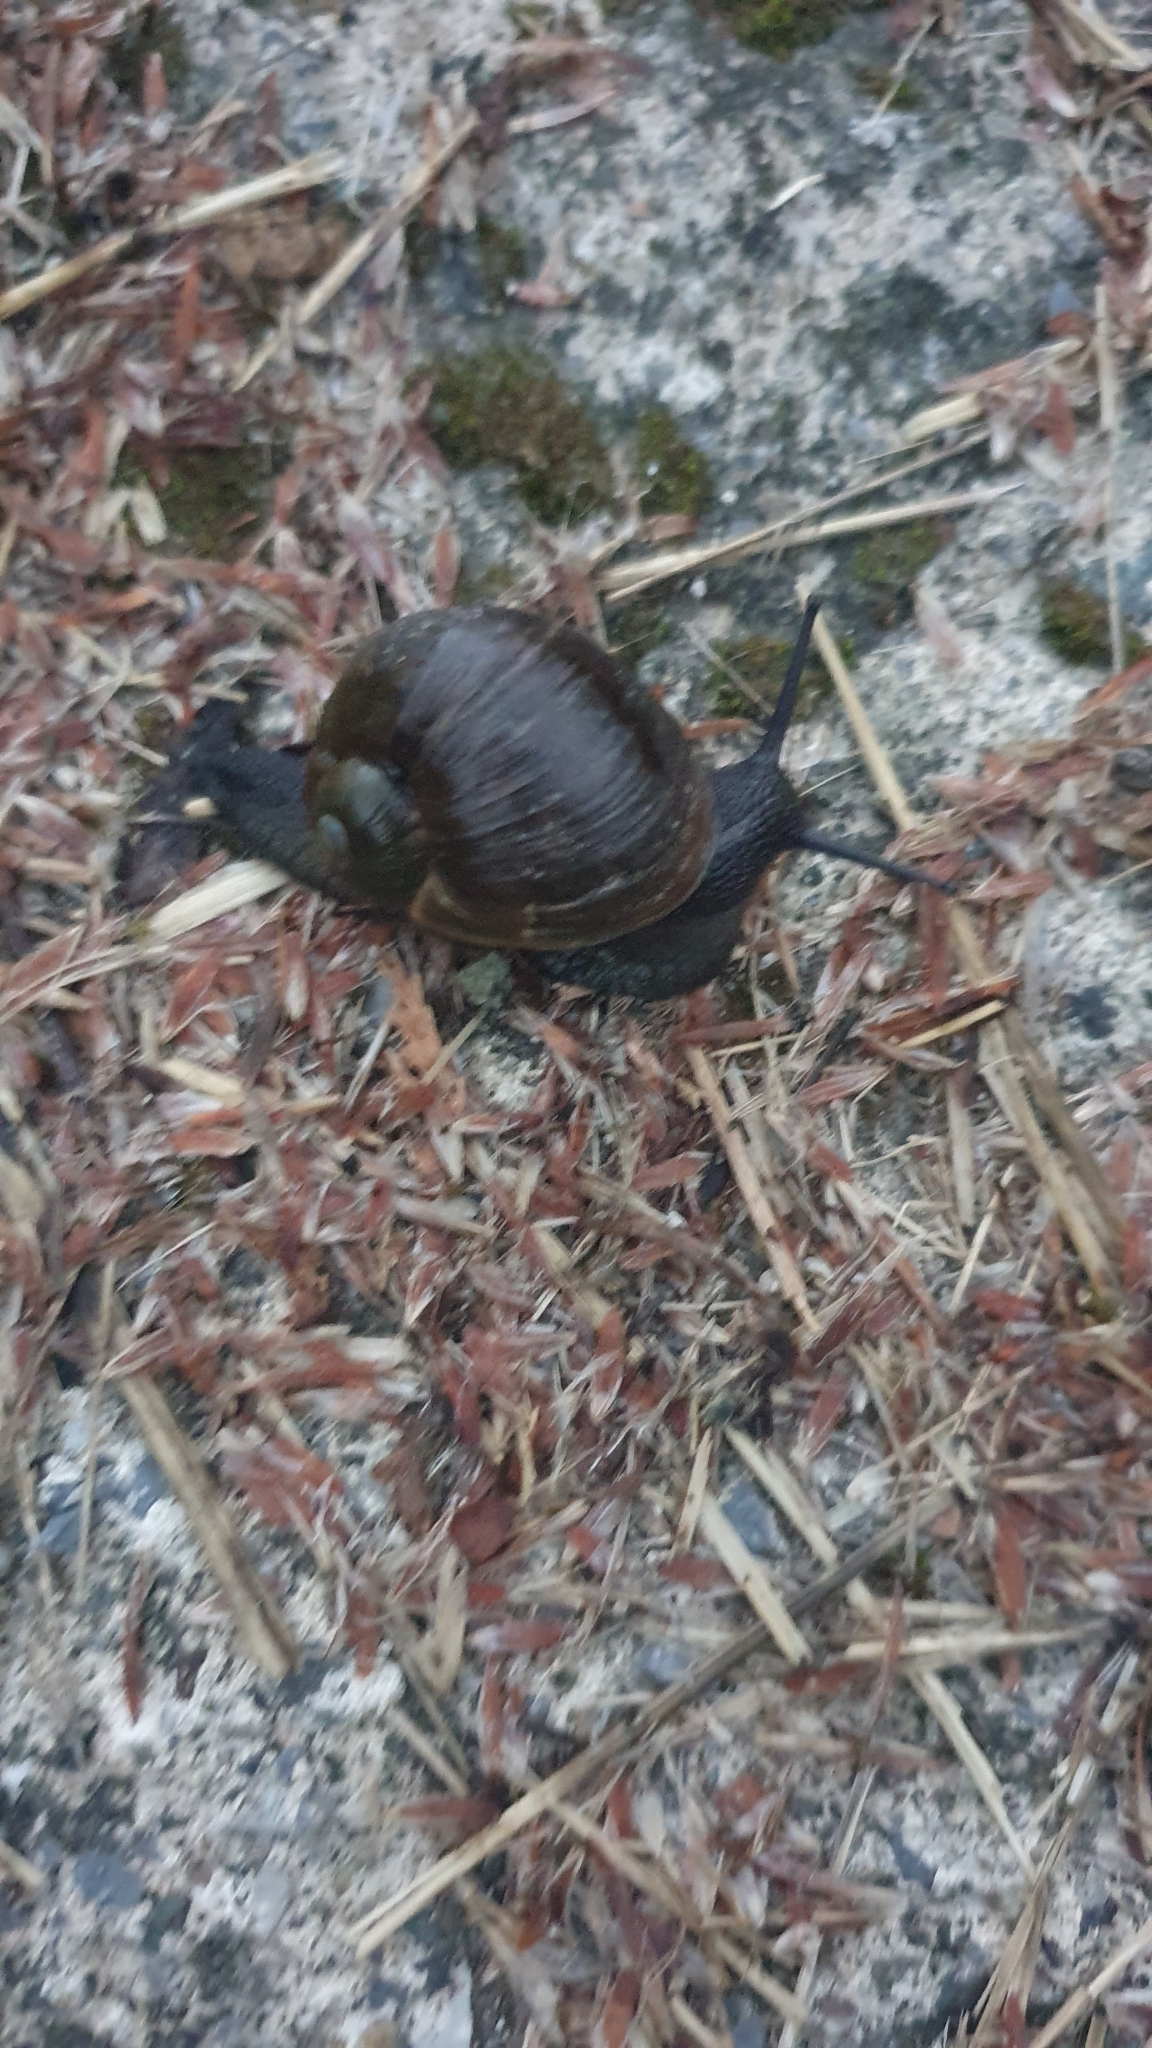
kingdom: Animalia
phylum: Mollusca
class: Gastropoda
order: Stylommatophora
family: Helicidae
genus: Cantareus
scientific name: Cantareus apertus
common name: Green gardensnail
